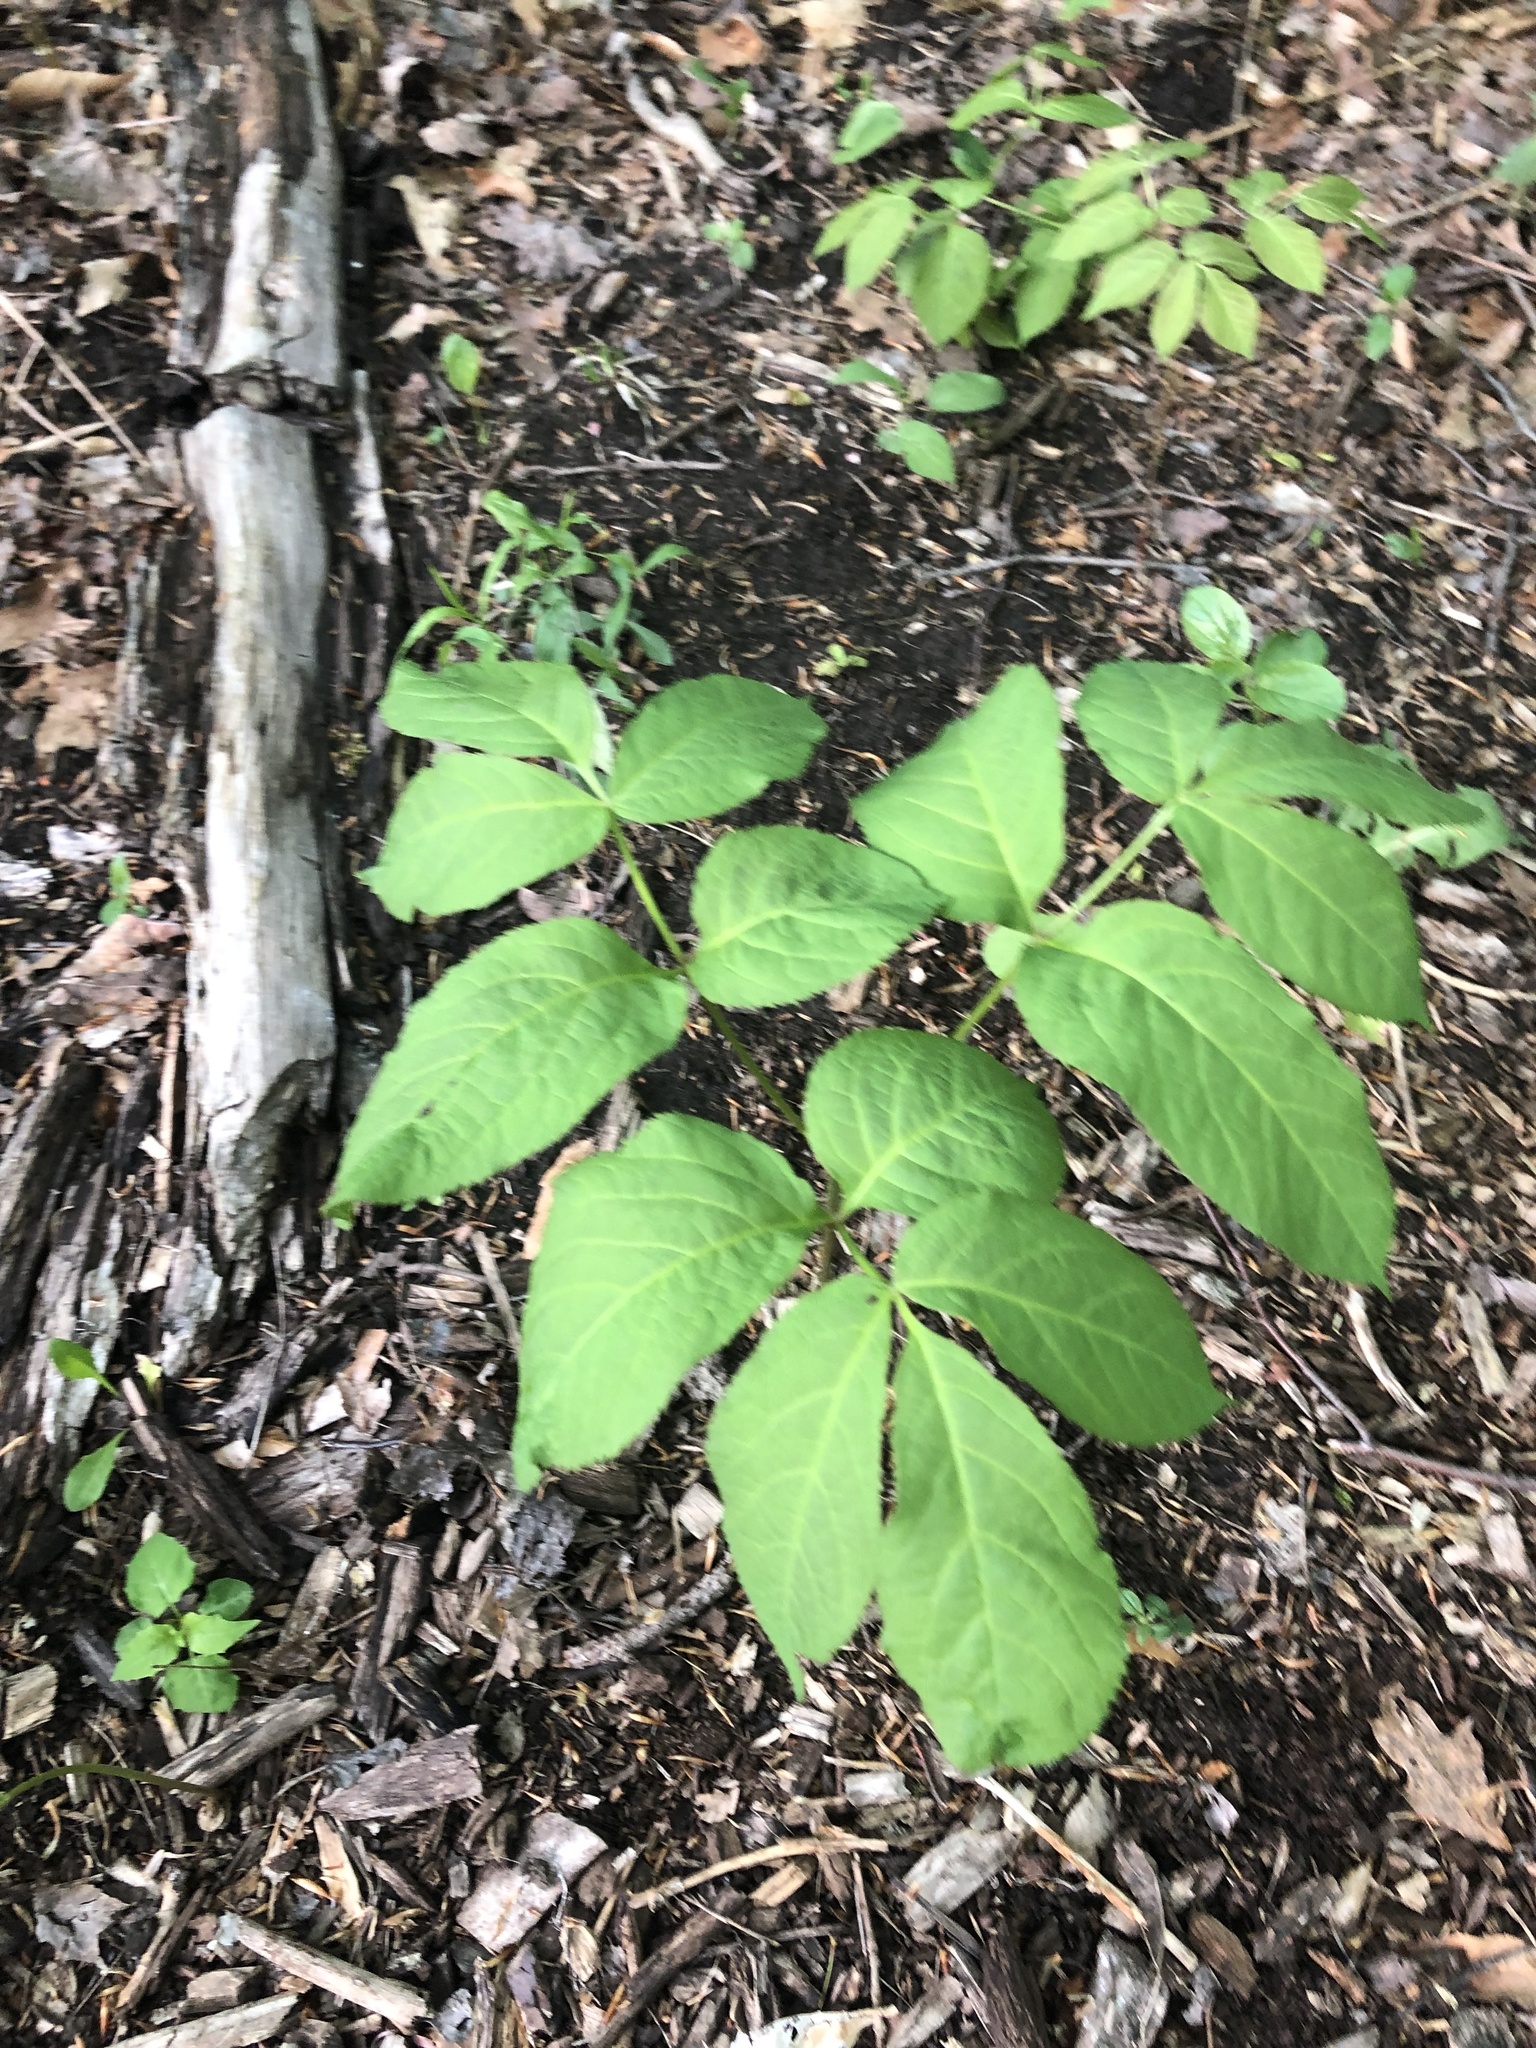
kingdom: Plantae
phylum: Tracheophyta
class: Magnoliopsida
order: Apiales
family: Araliaceae
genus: Aralia
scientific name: Aralia nudicaulis
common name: Wild sarsaparilla
